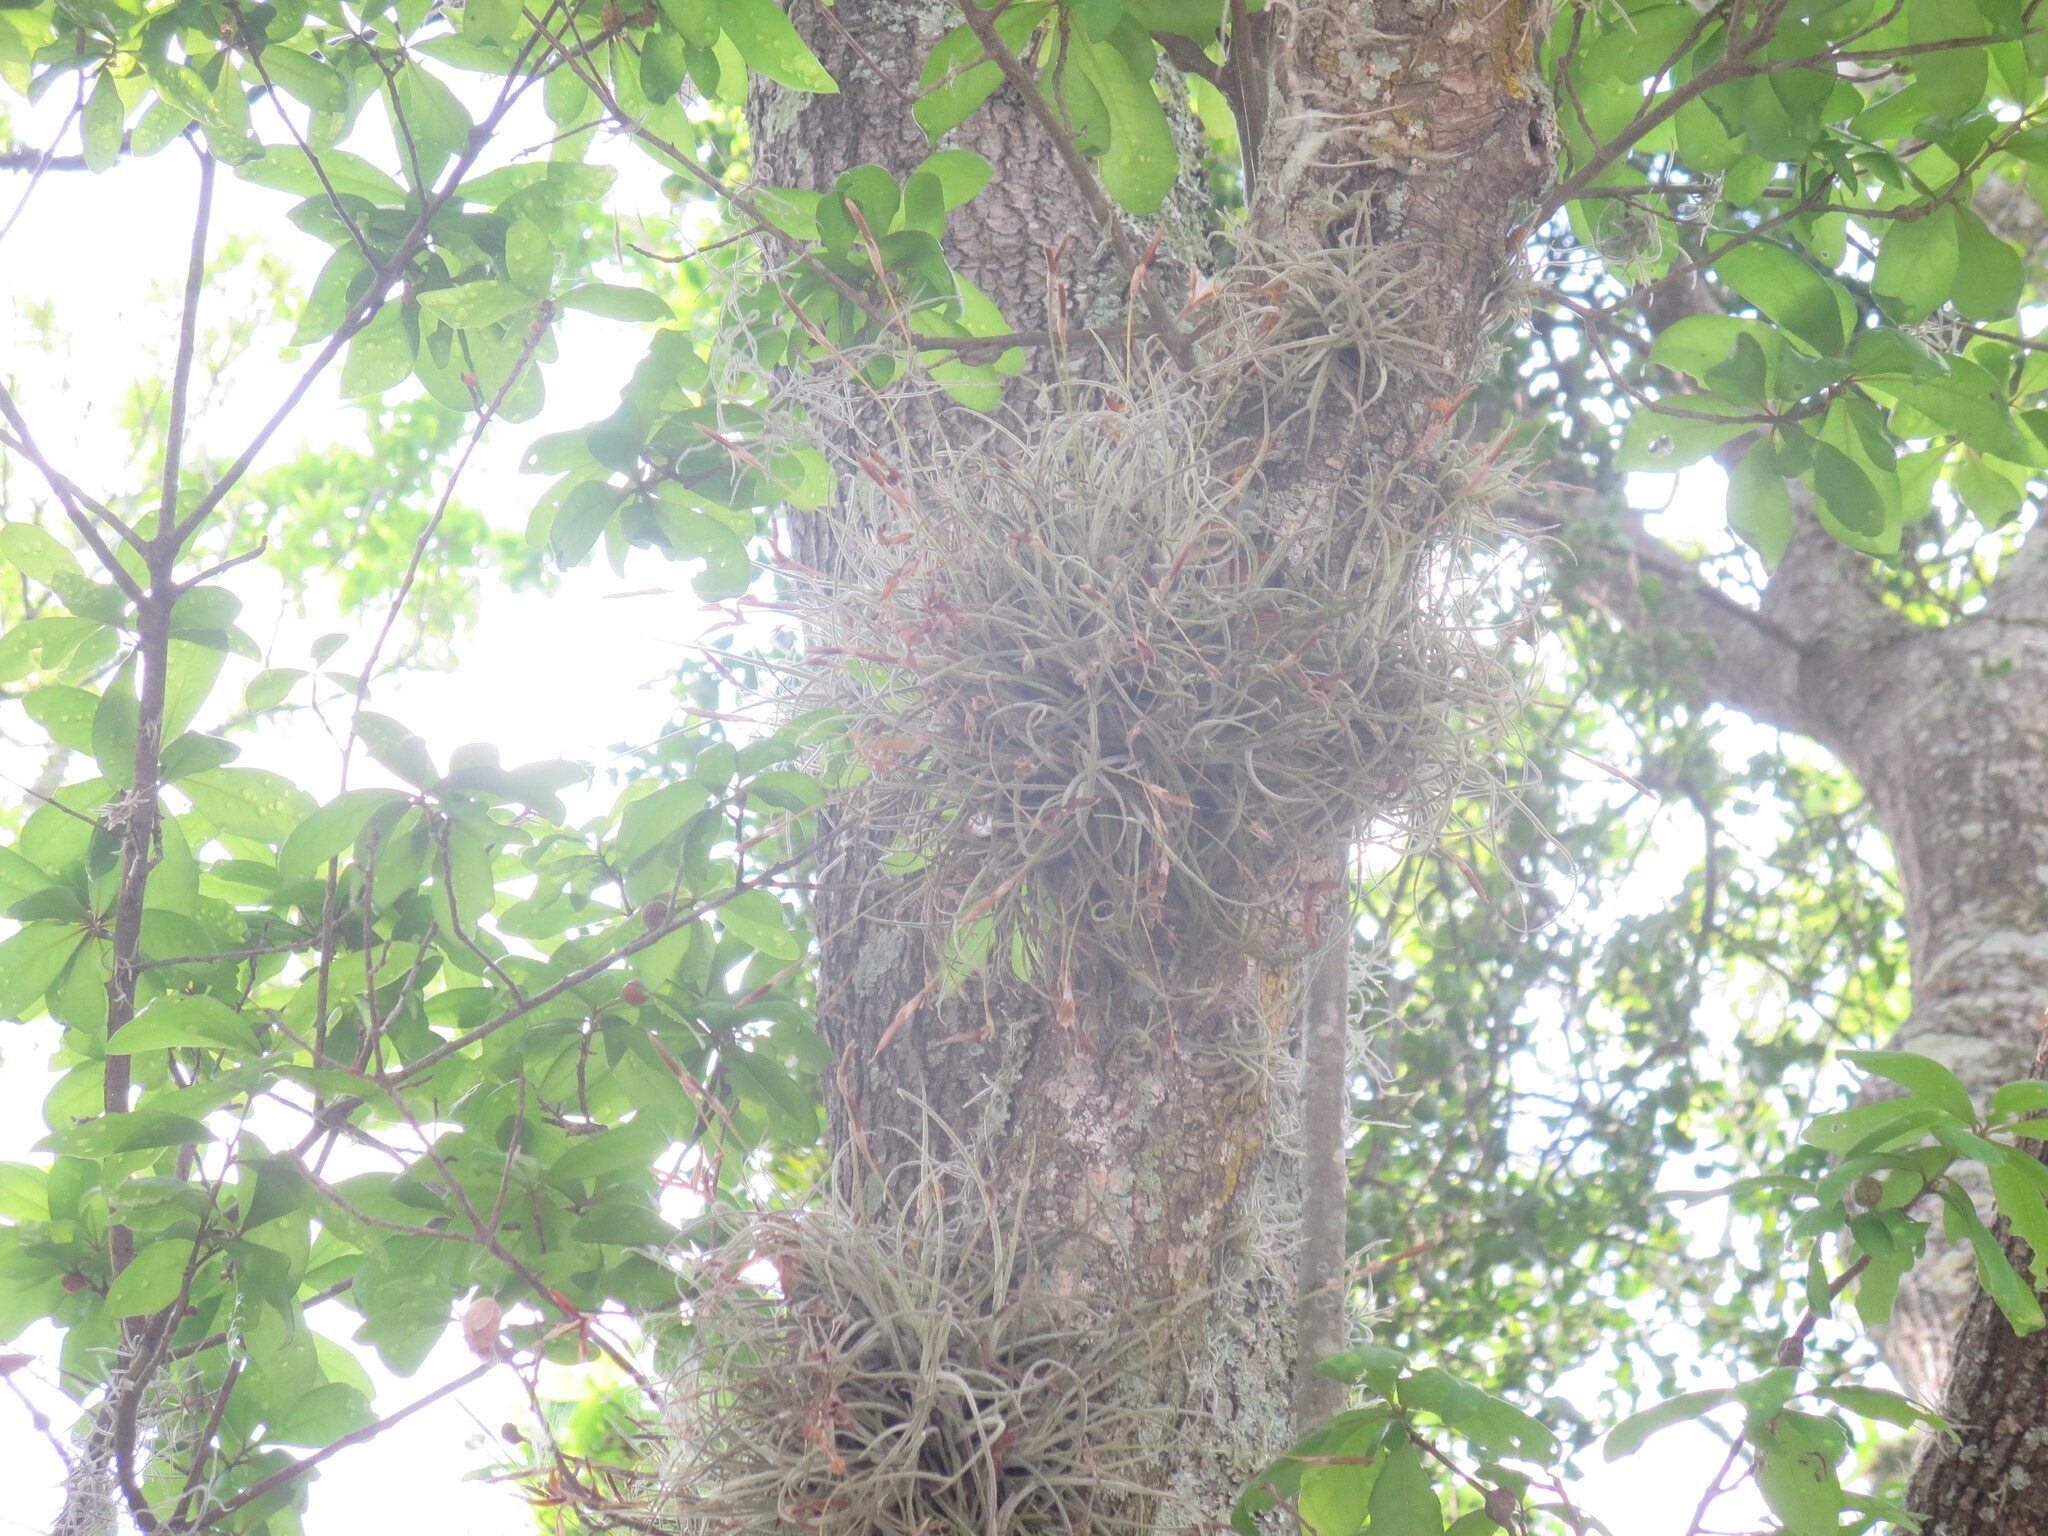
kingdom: Plantae
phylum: Tracheophyta
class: Liliopsida
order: Poales
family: Bromeliaceae
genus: Tillandsia
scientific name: Tillandsia recurvata
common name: Small ballmoss
